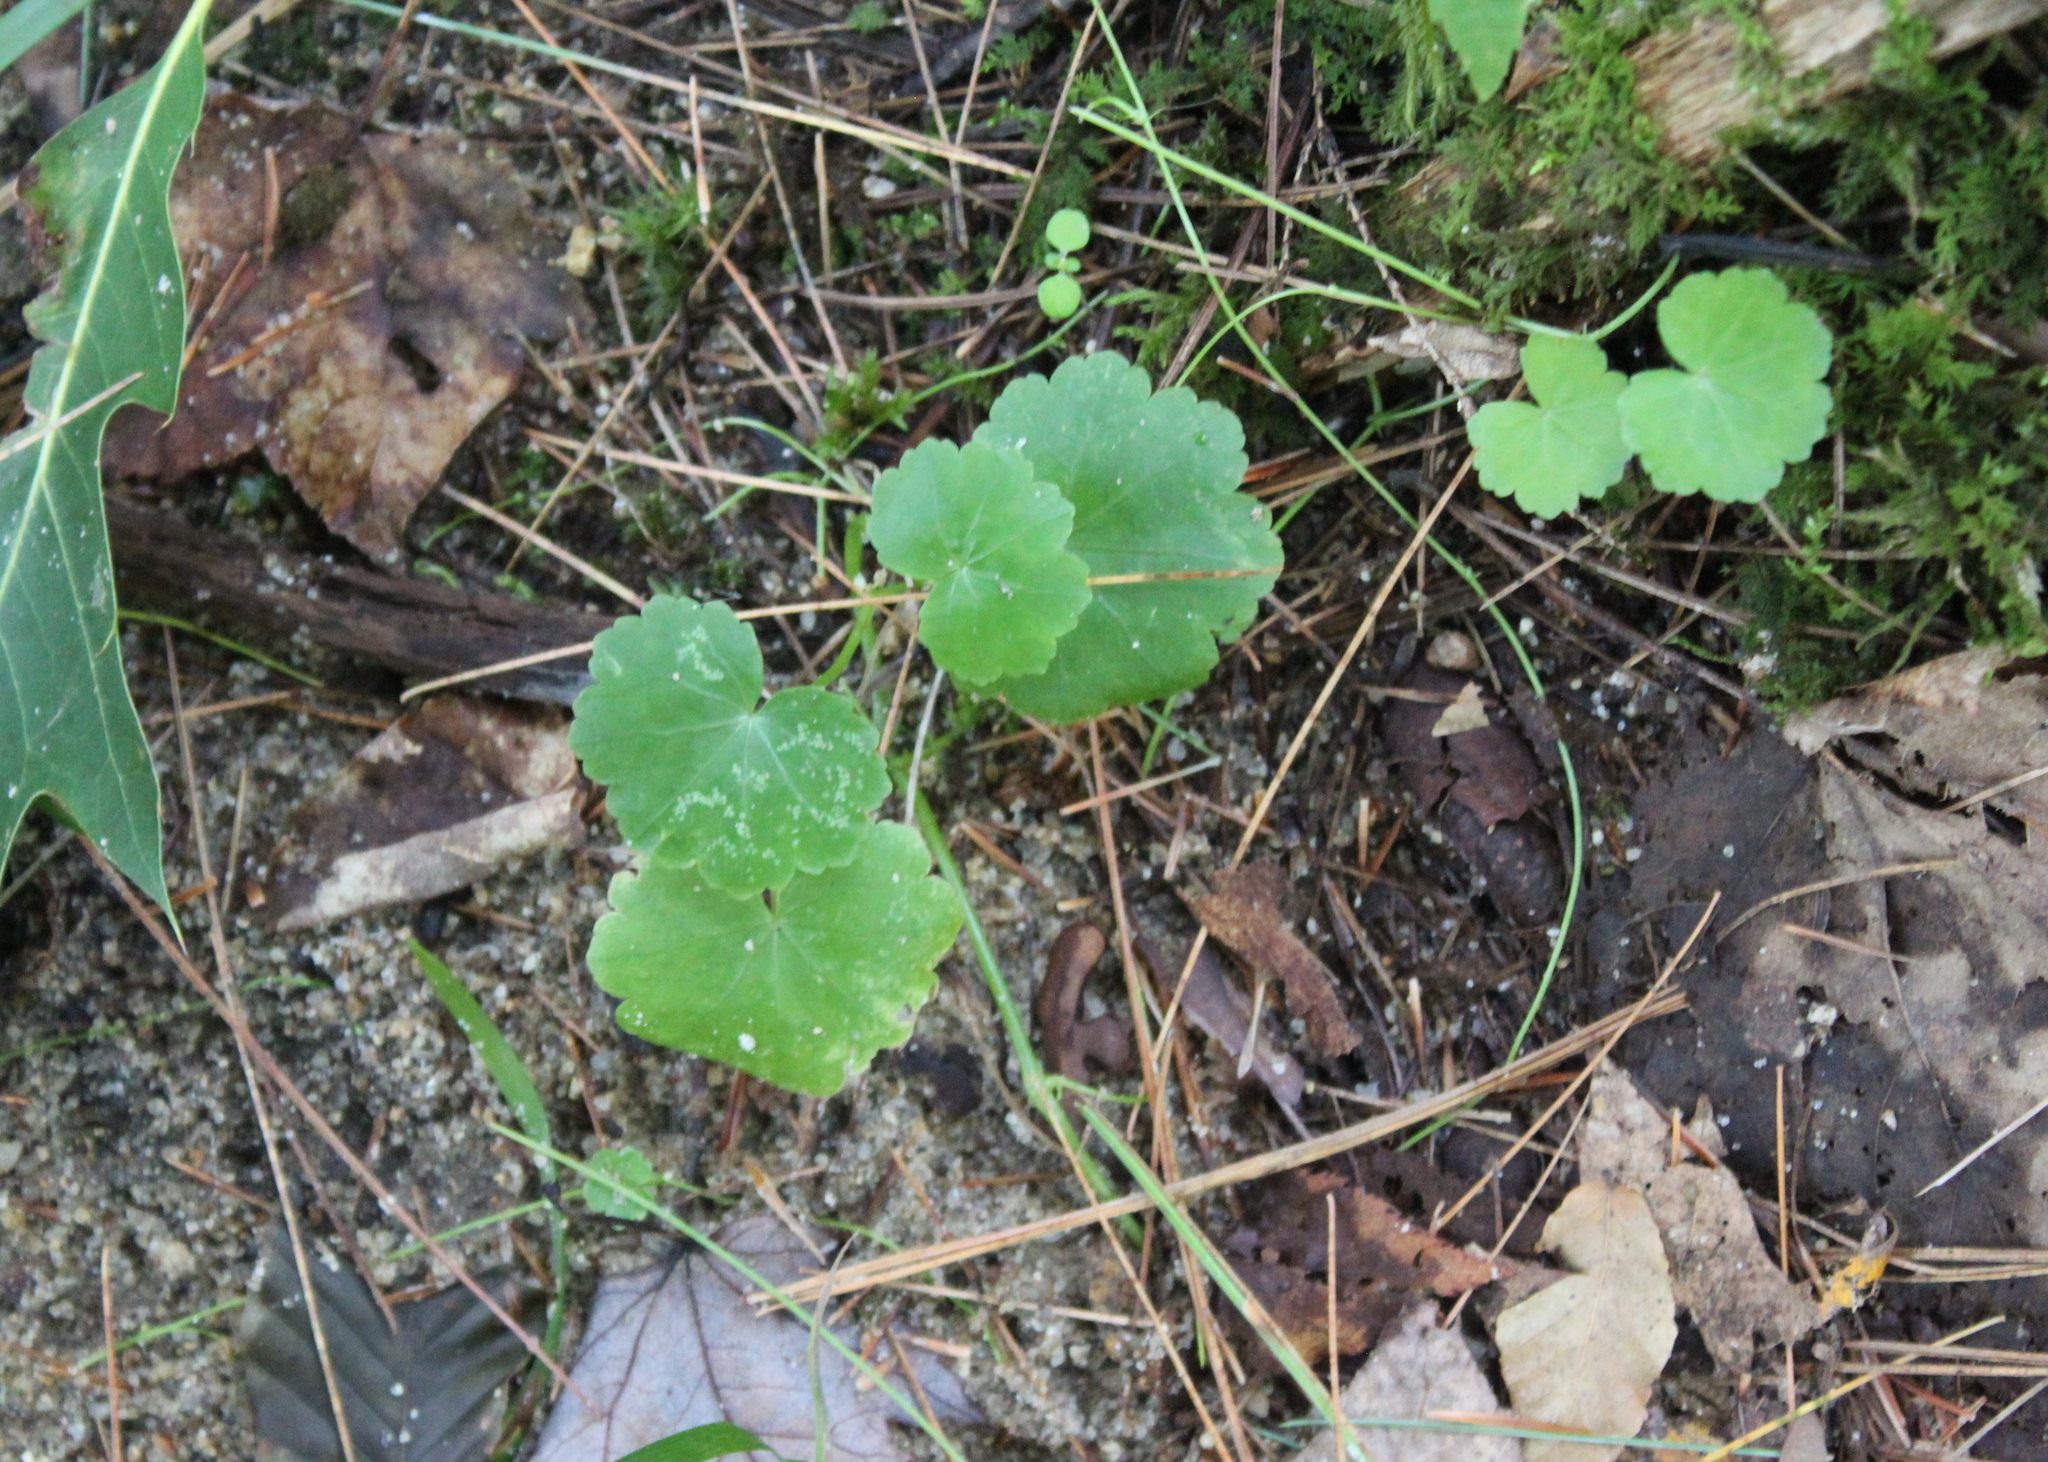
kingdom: Plantae
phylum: Tracheophyta
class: Magnoliopsida
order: Apiales
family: Araliaceae
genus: Hydrocotyle
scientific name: Hydrocotyle americana
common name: American water-pennywort
